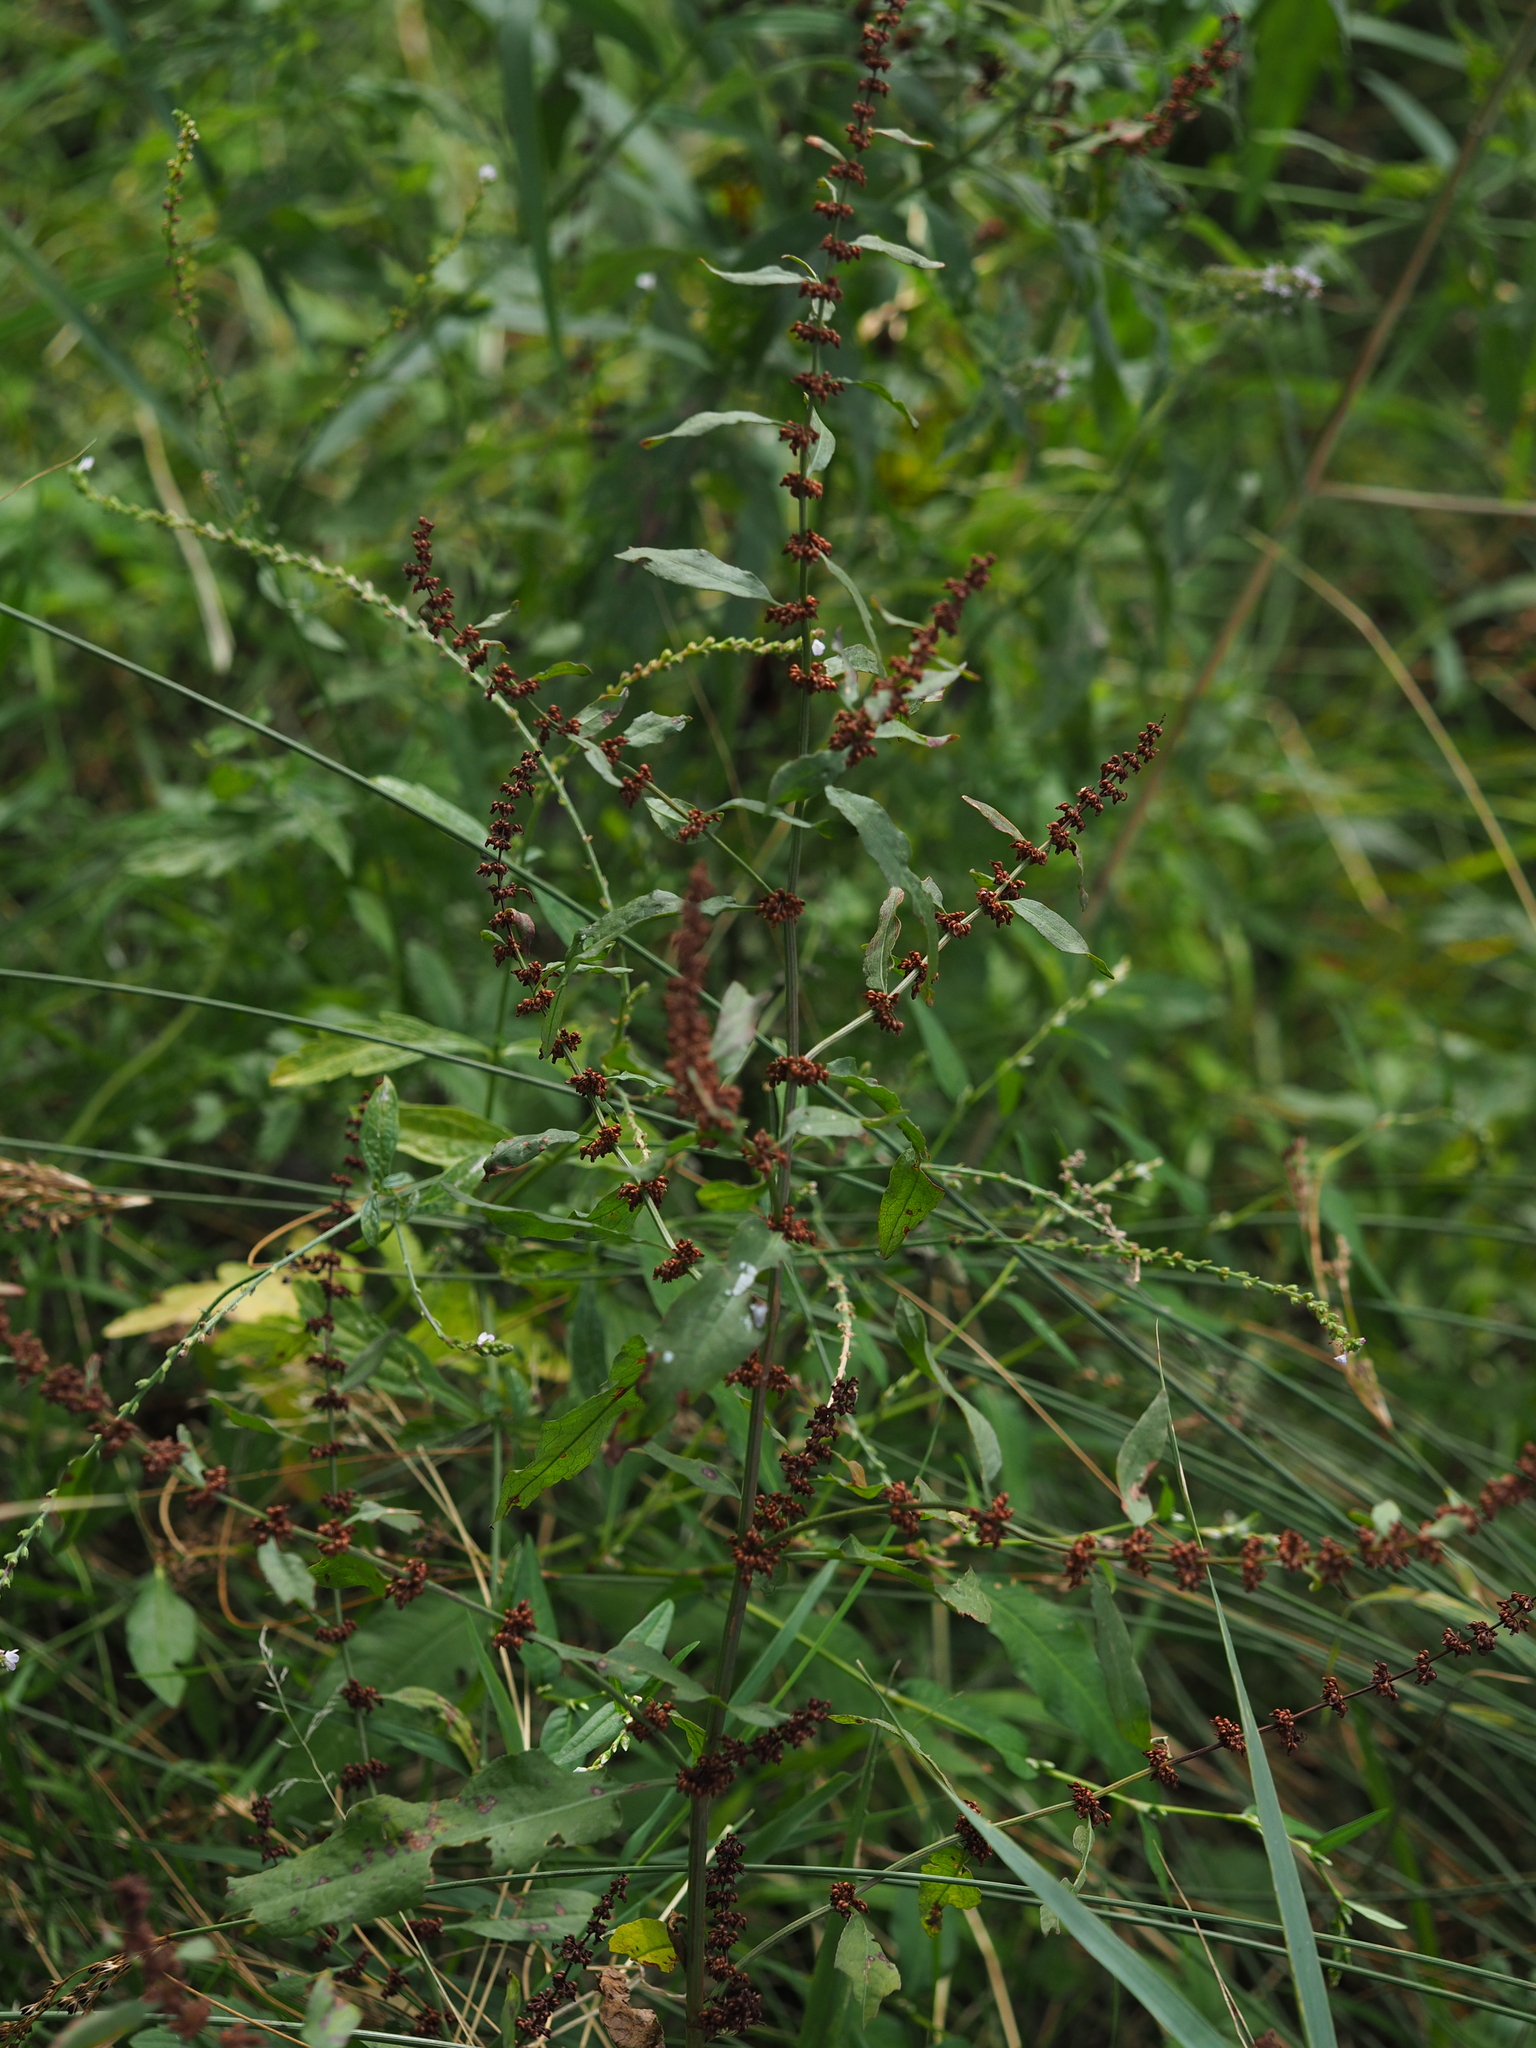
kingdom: Plantae
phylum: Tracheophyta
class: Magnoliopsida
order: Caryophyllales
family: Polygonaceae
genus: Rumex
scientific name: Rumex conglomeratus
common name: Clustered dock
